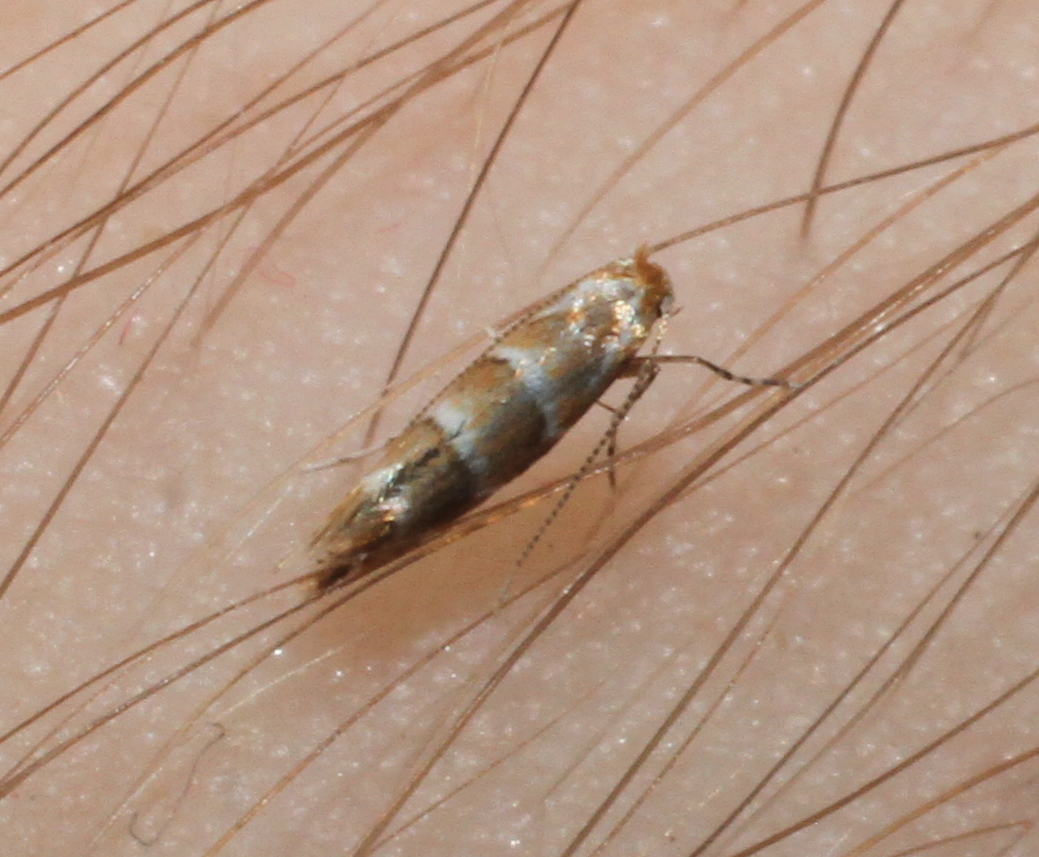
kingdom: Animalia
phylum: Arthropoda
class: Insecta
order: Lepidoptera
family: Gracillariidae
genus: Cameraria
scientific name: Cameraria ohridella
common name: Horse-chestnut leaf-miner
